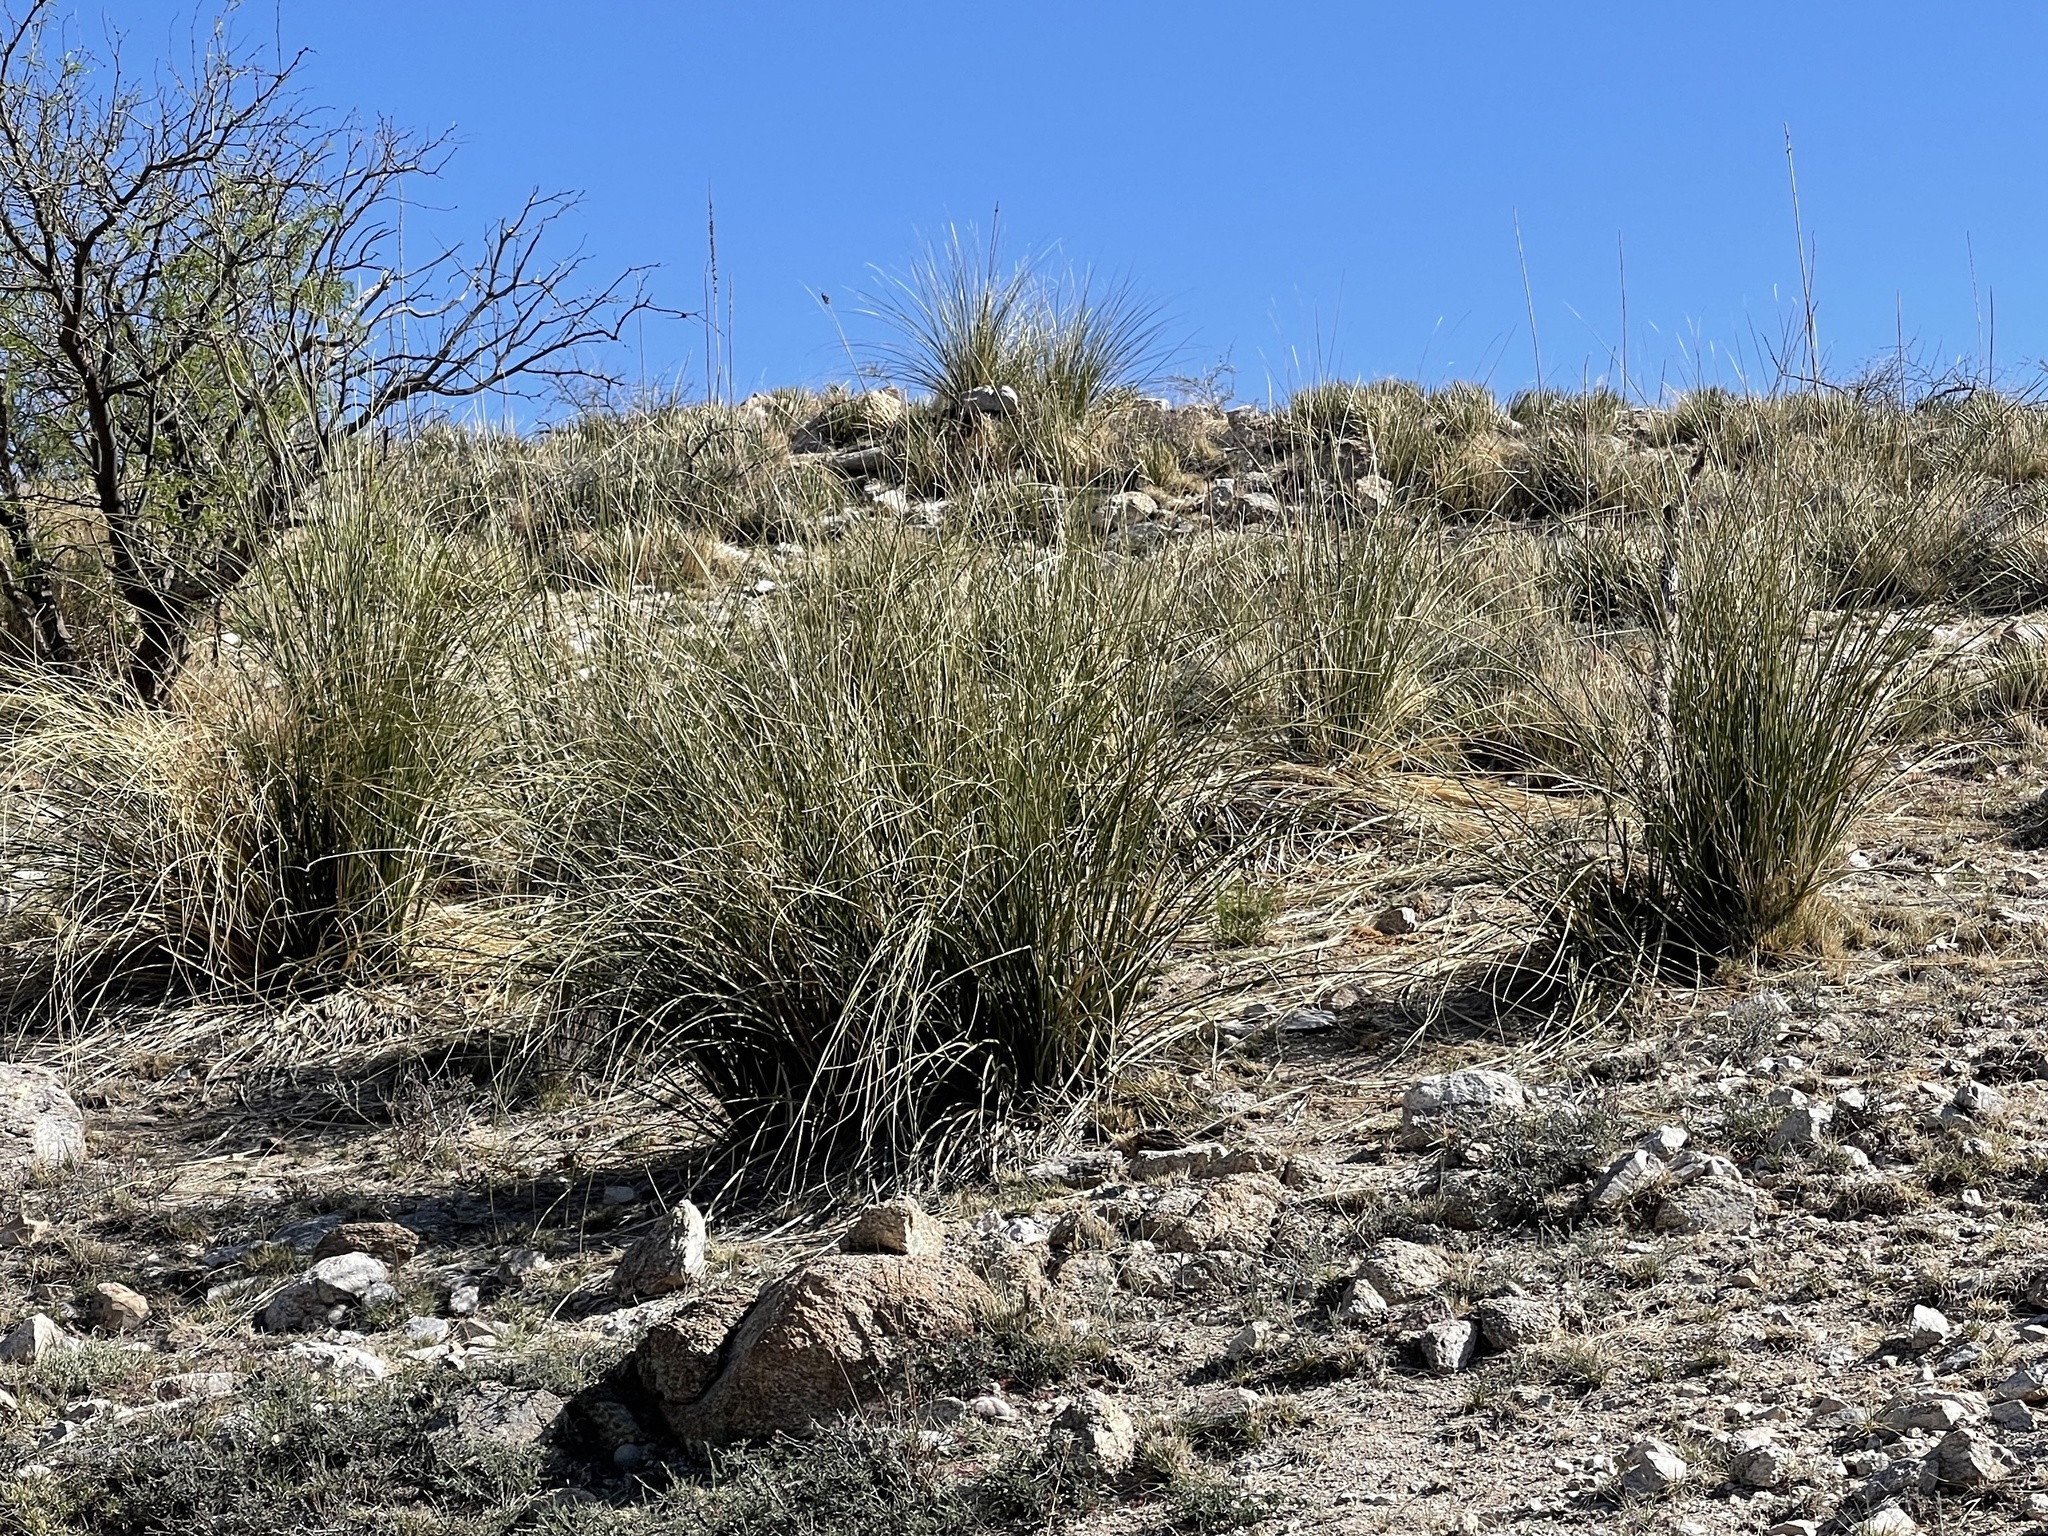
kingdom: Plantae
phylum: Tracheophyta
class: Liliopsida
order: Asparagales
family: Asparagaceae
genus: Nolina
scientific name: Nolina microcarpa
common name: Bear-grass
